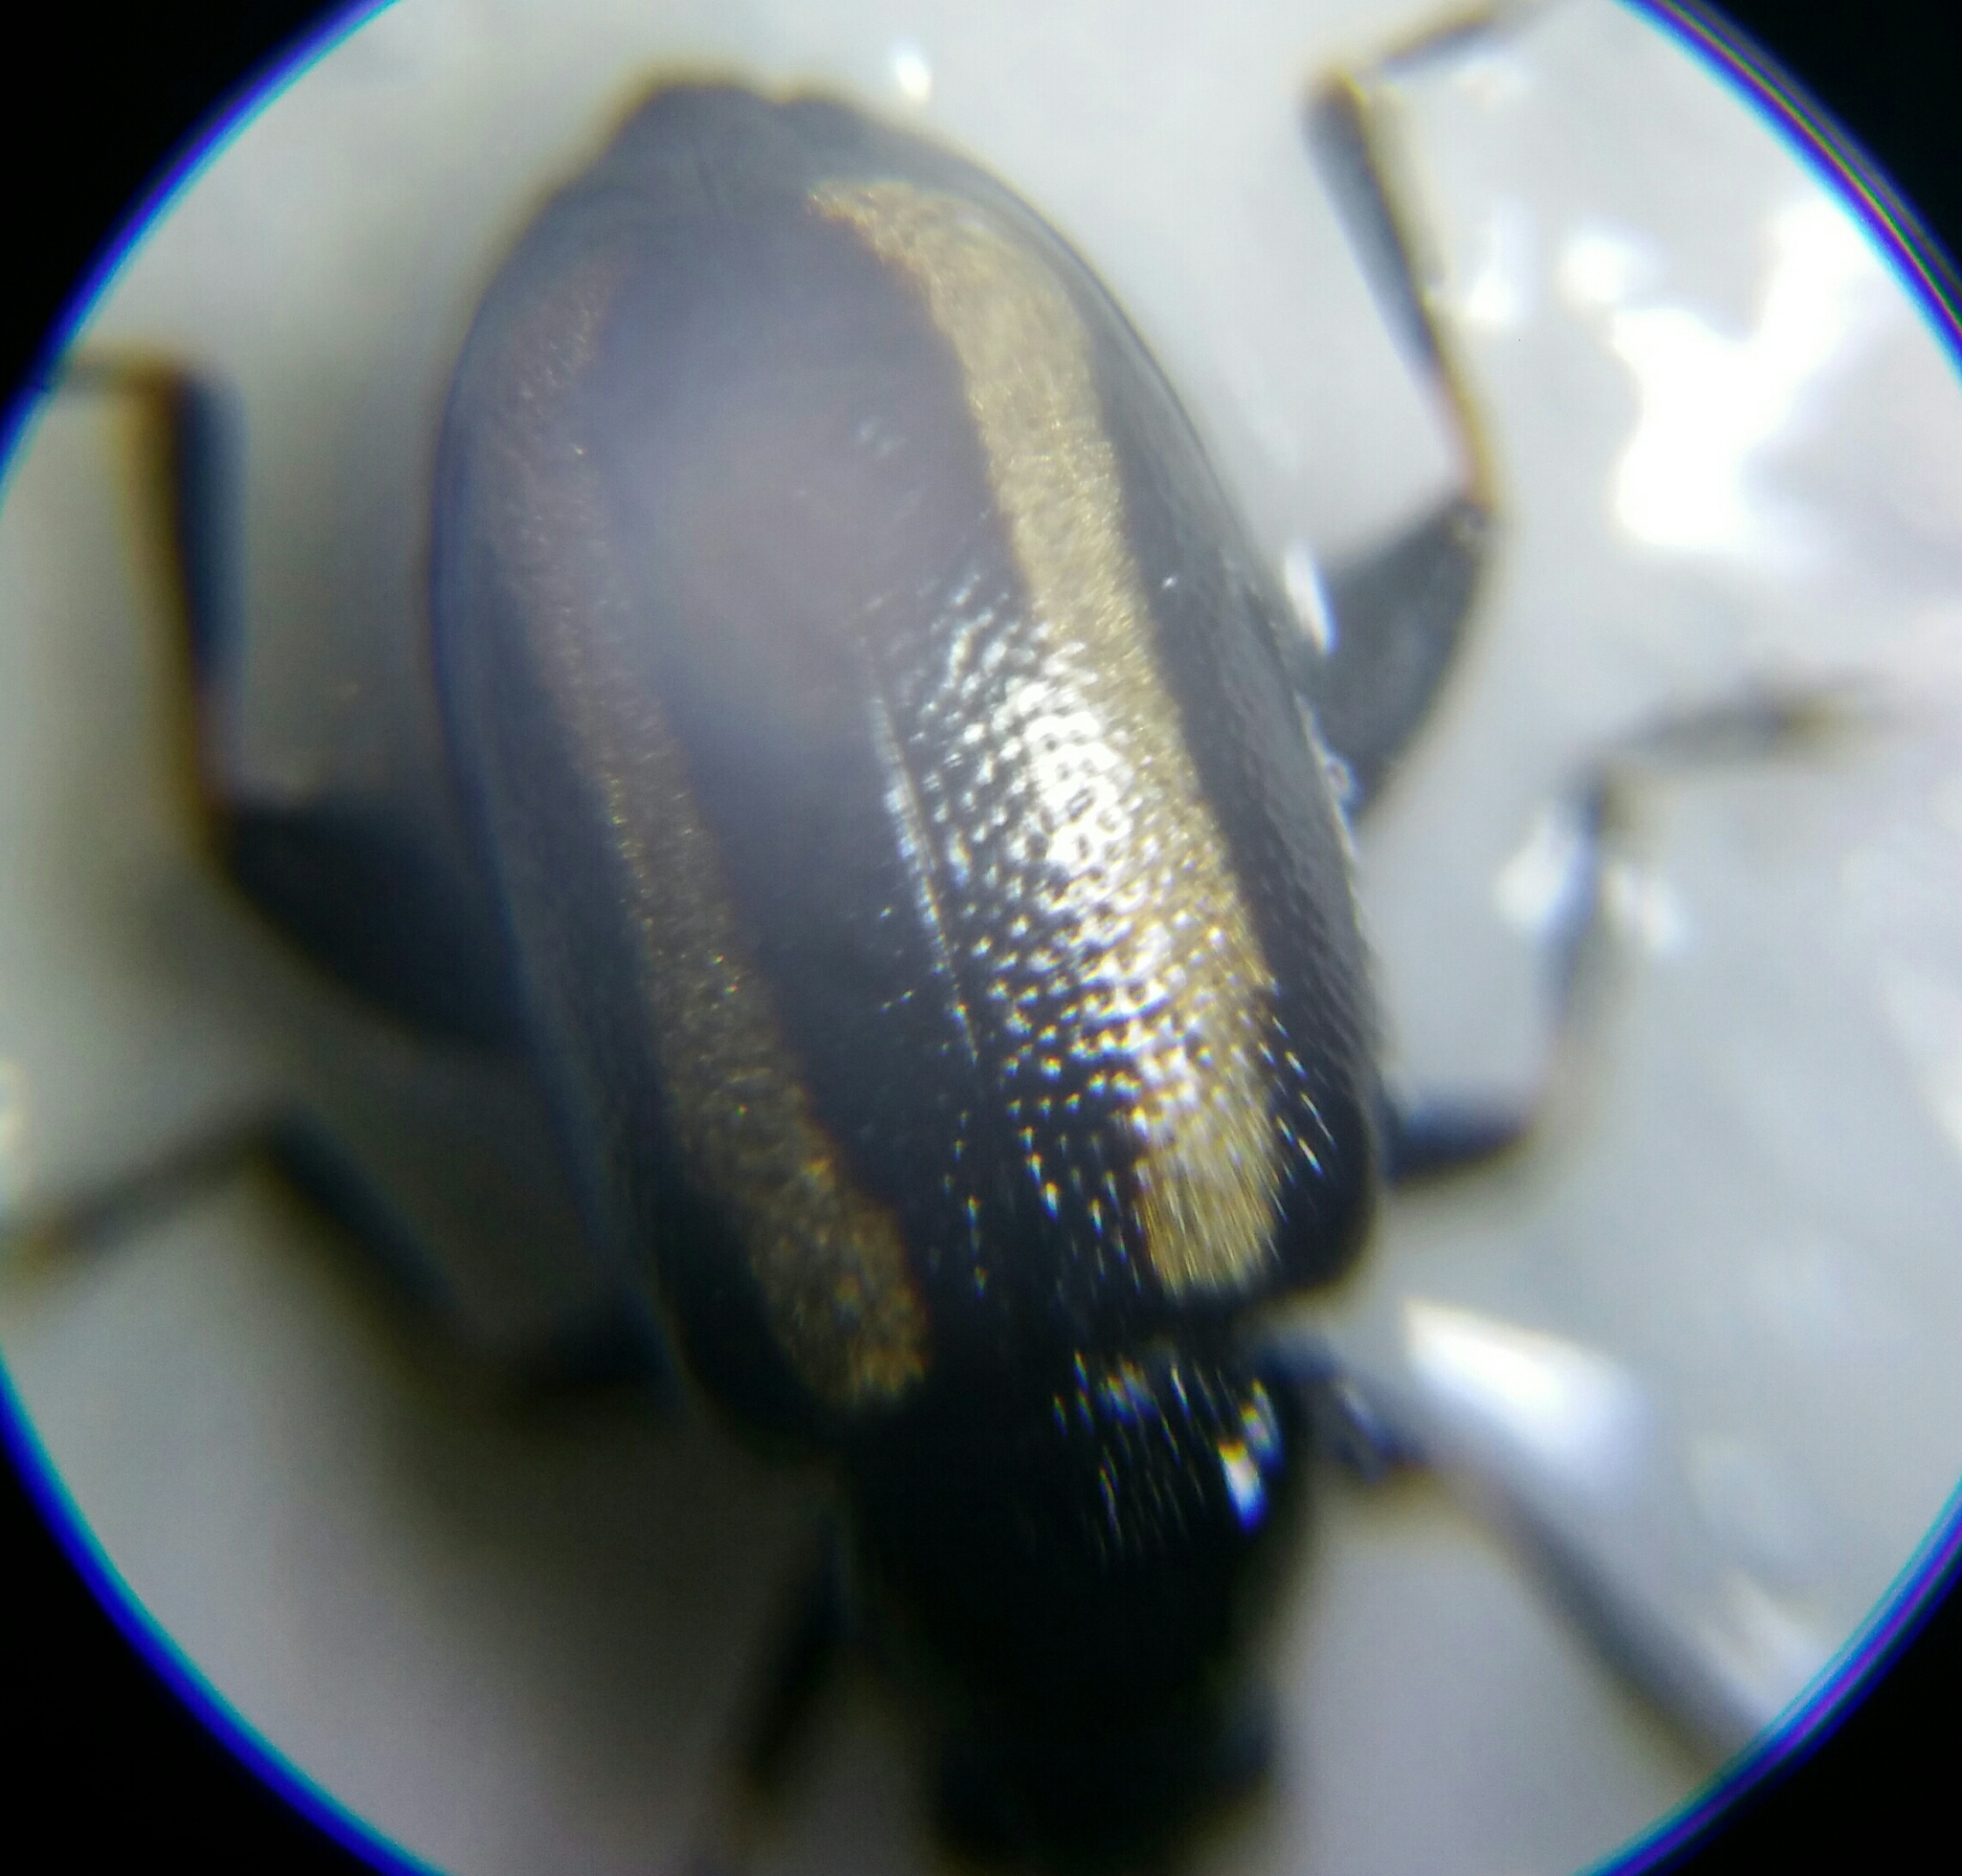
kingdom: Animalia
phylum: Arthropoda
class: Insecta
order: Coleoptera
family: Chrysomelidae
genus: Phyllotreta
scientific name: Phyllotreta undulata
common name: Turnip flea beetle
